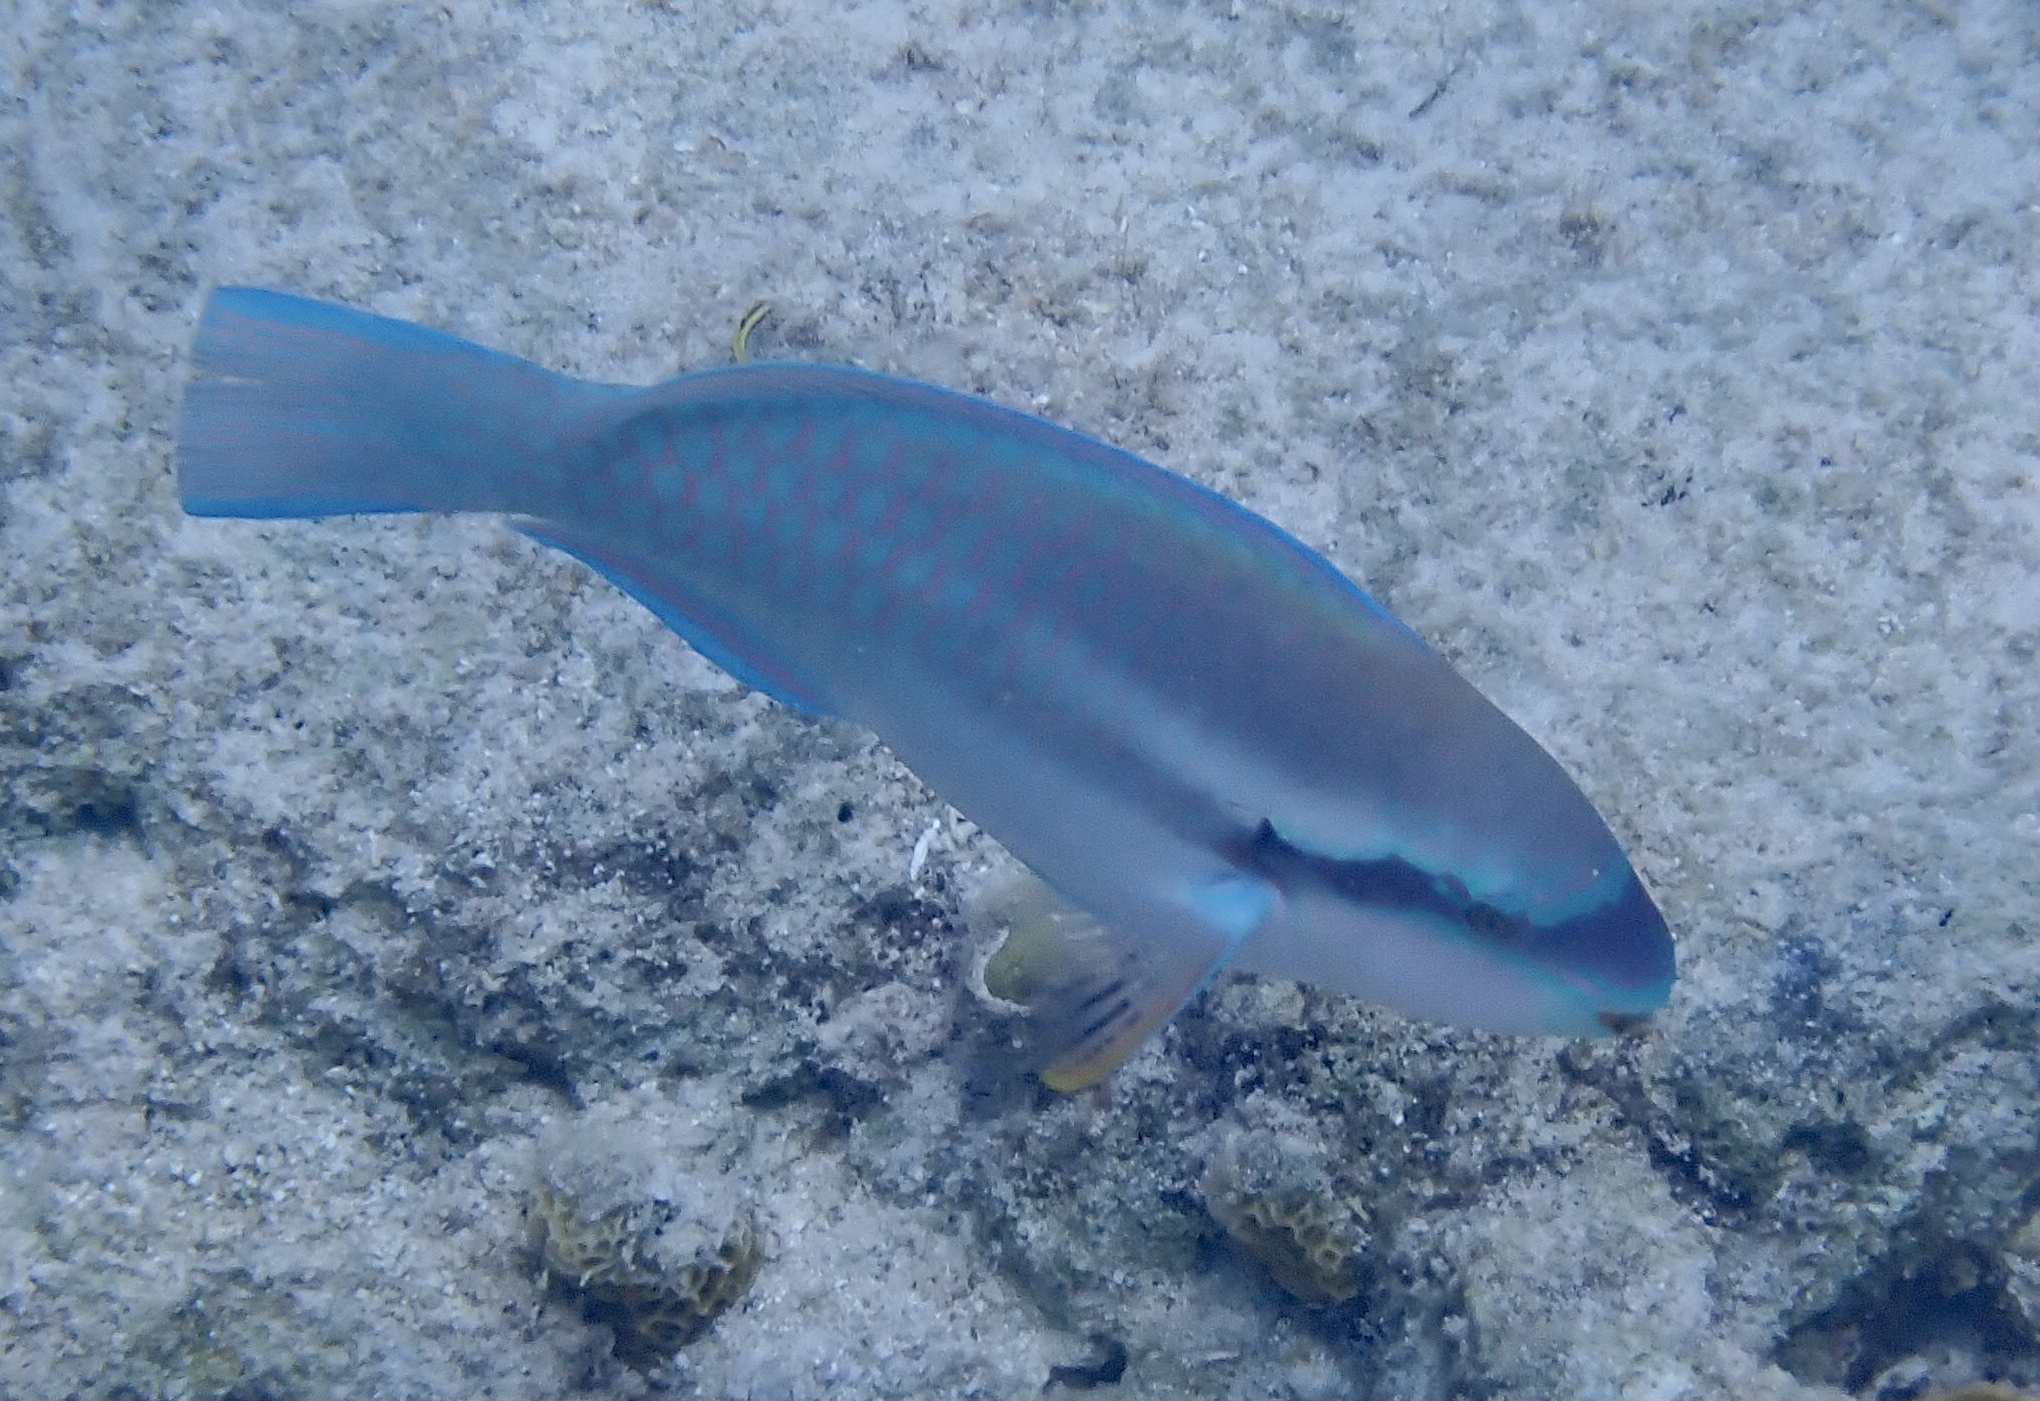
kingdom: Animalia
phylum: Chordata
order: Perciformes
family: Scaridae
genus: Scarus
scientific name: Scarus iseri
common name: Striped parrotfish
